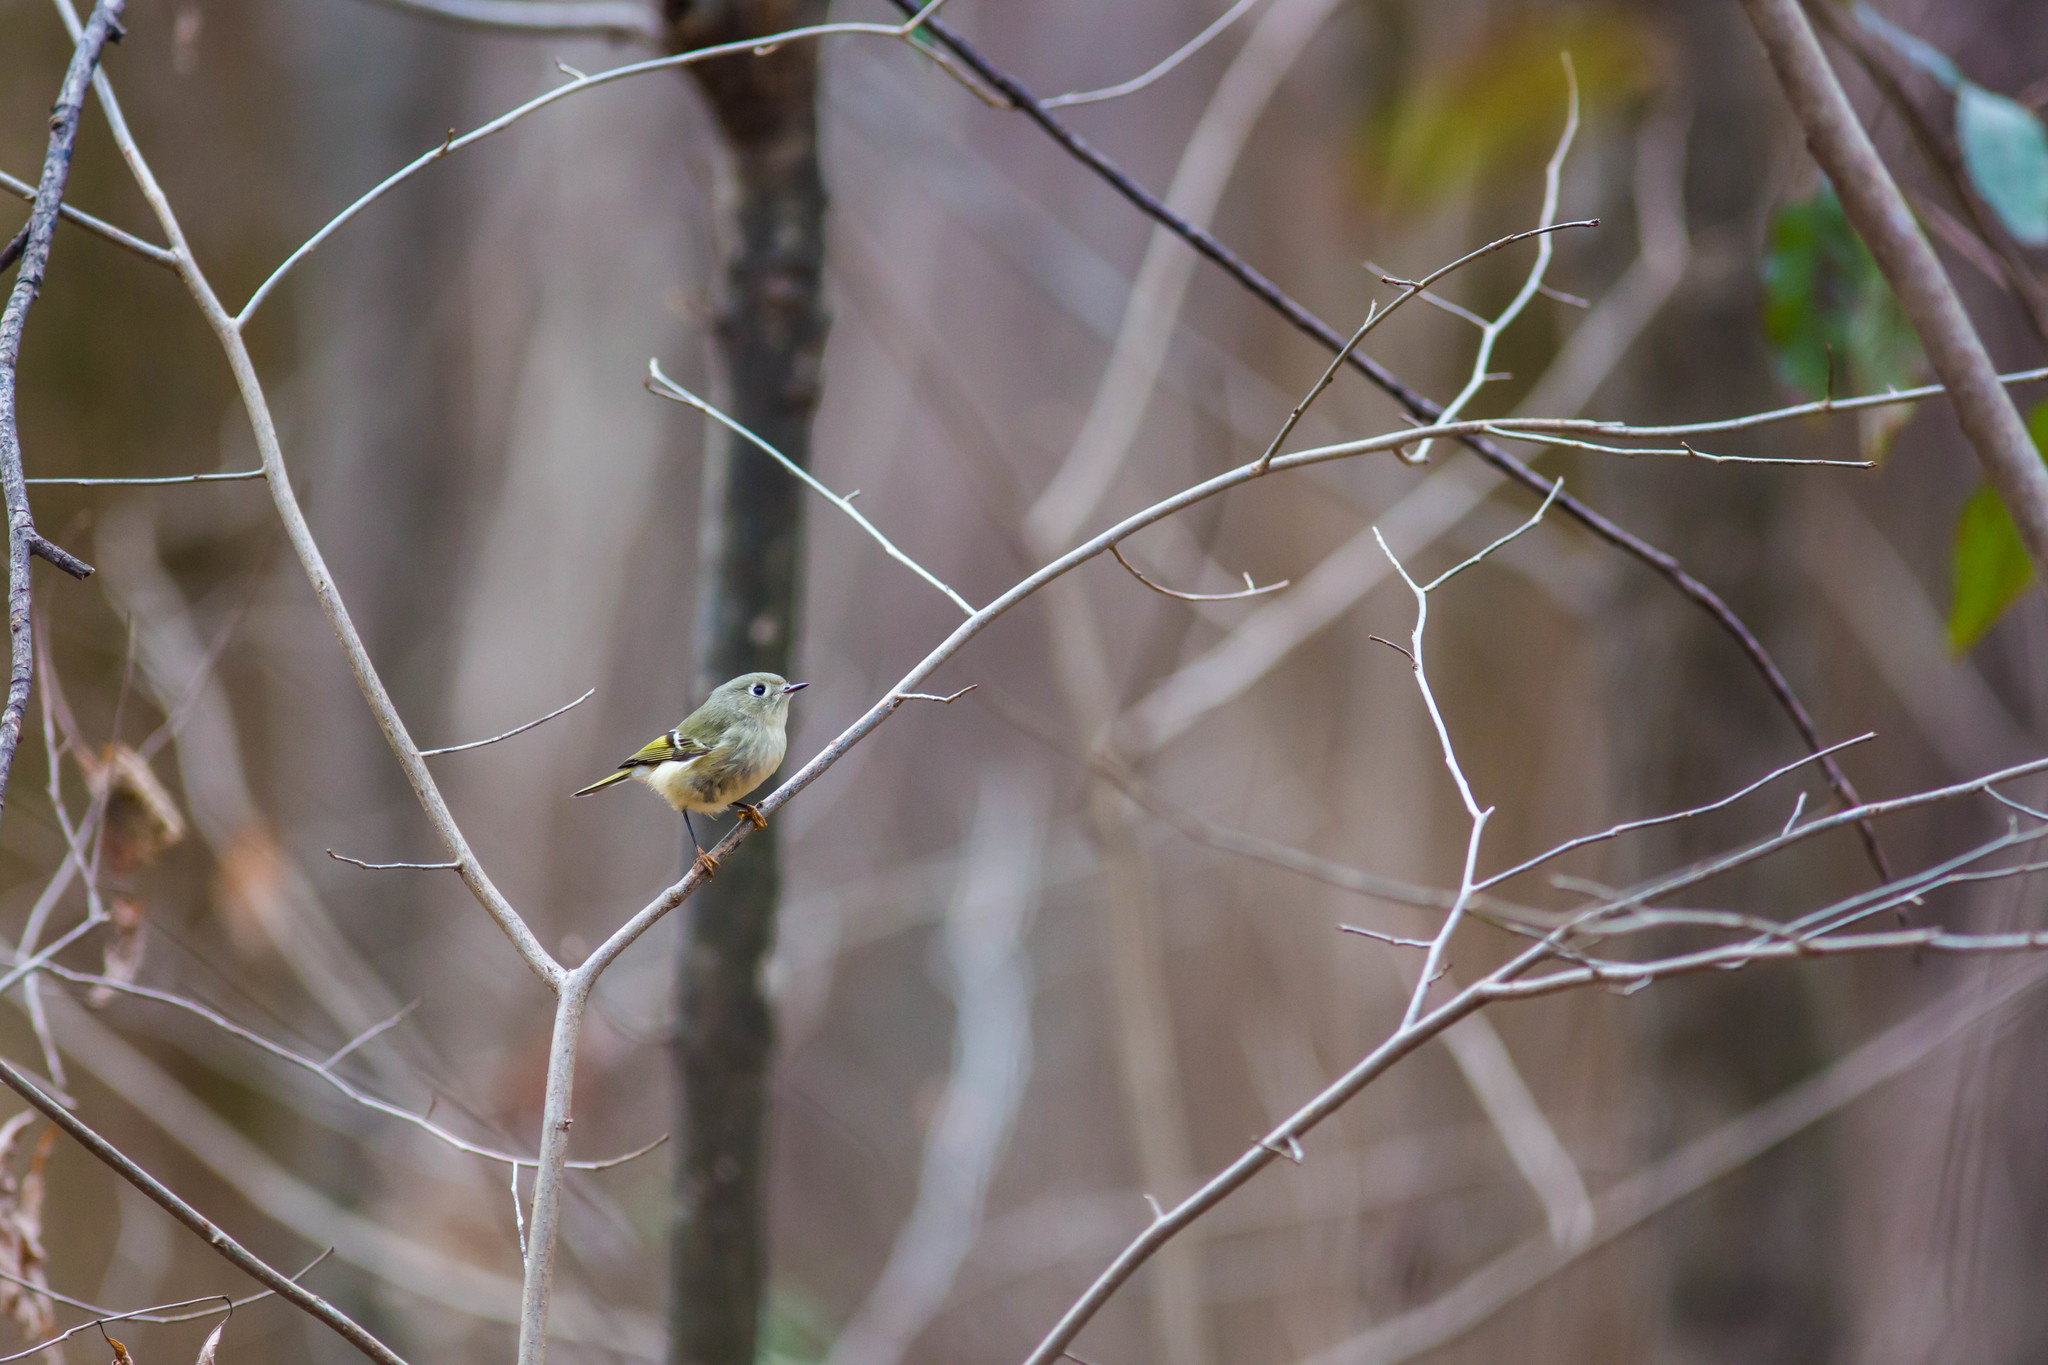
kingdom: Animalia
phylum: Chordata
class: Aves
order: Passeriformes
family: Regulidae
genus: Regulus
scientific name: Regulus calendula
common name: Ruby-crowned kinglet
